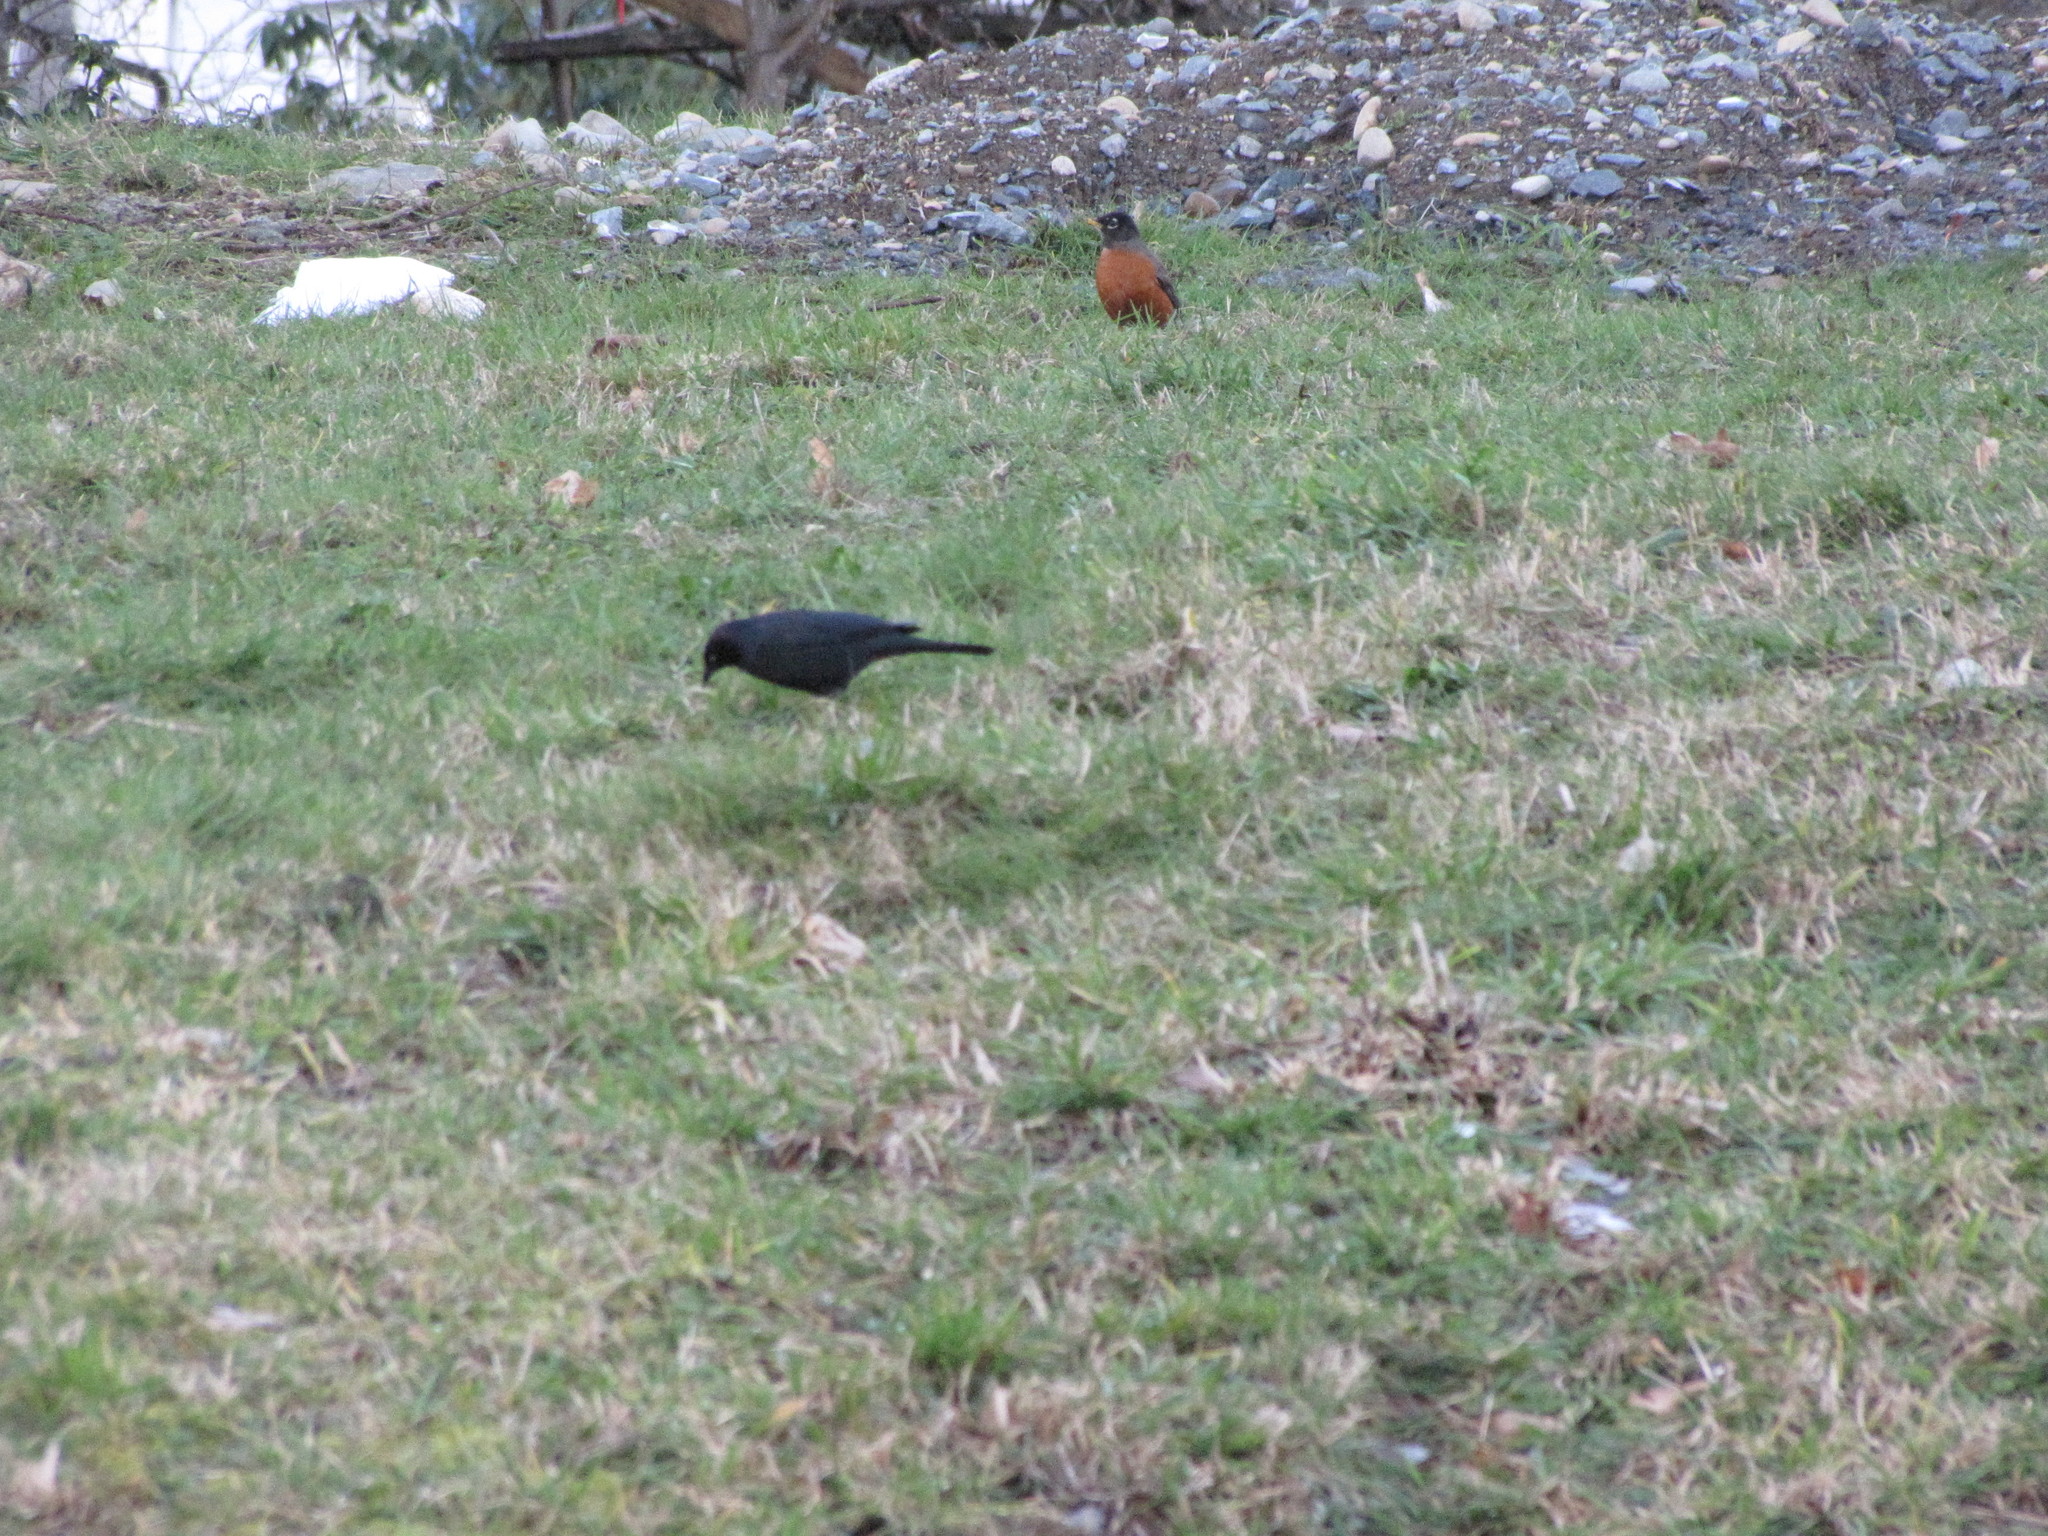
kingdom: Animalia
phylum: Chordata
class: Aves
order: Passeriformes
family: Turdidae
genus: Turdus
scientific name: Turdus migratorius
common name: American robin
